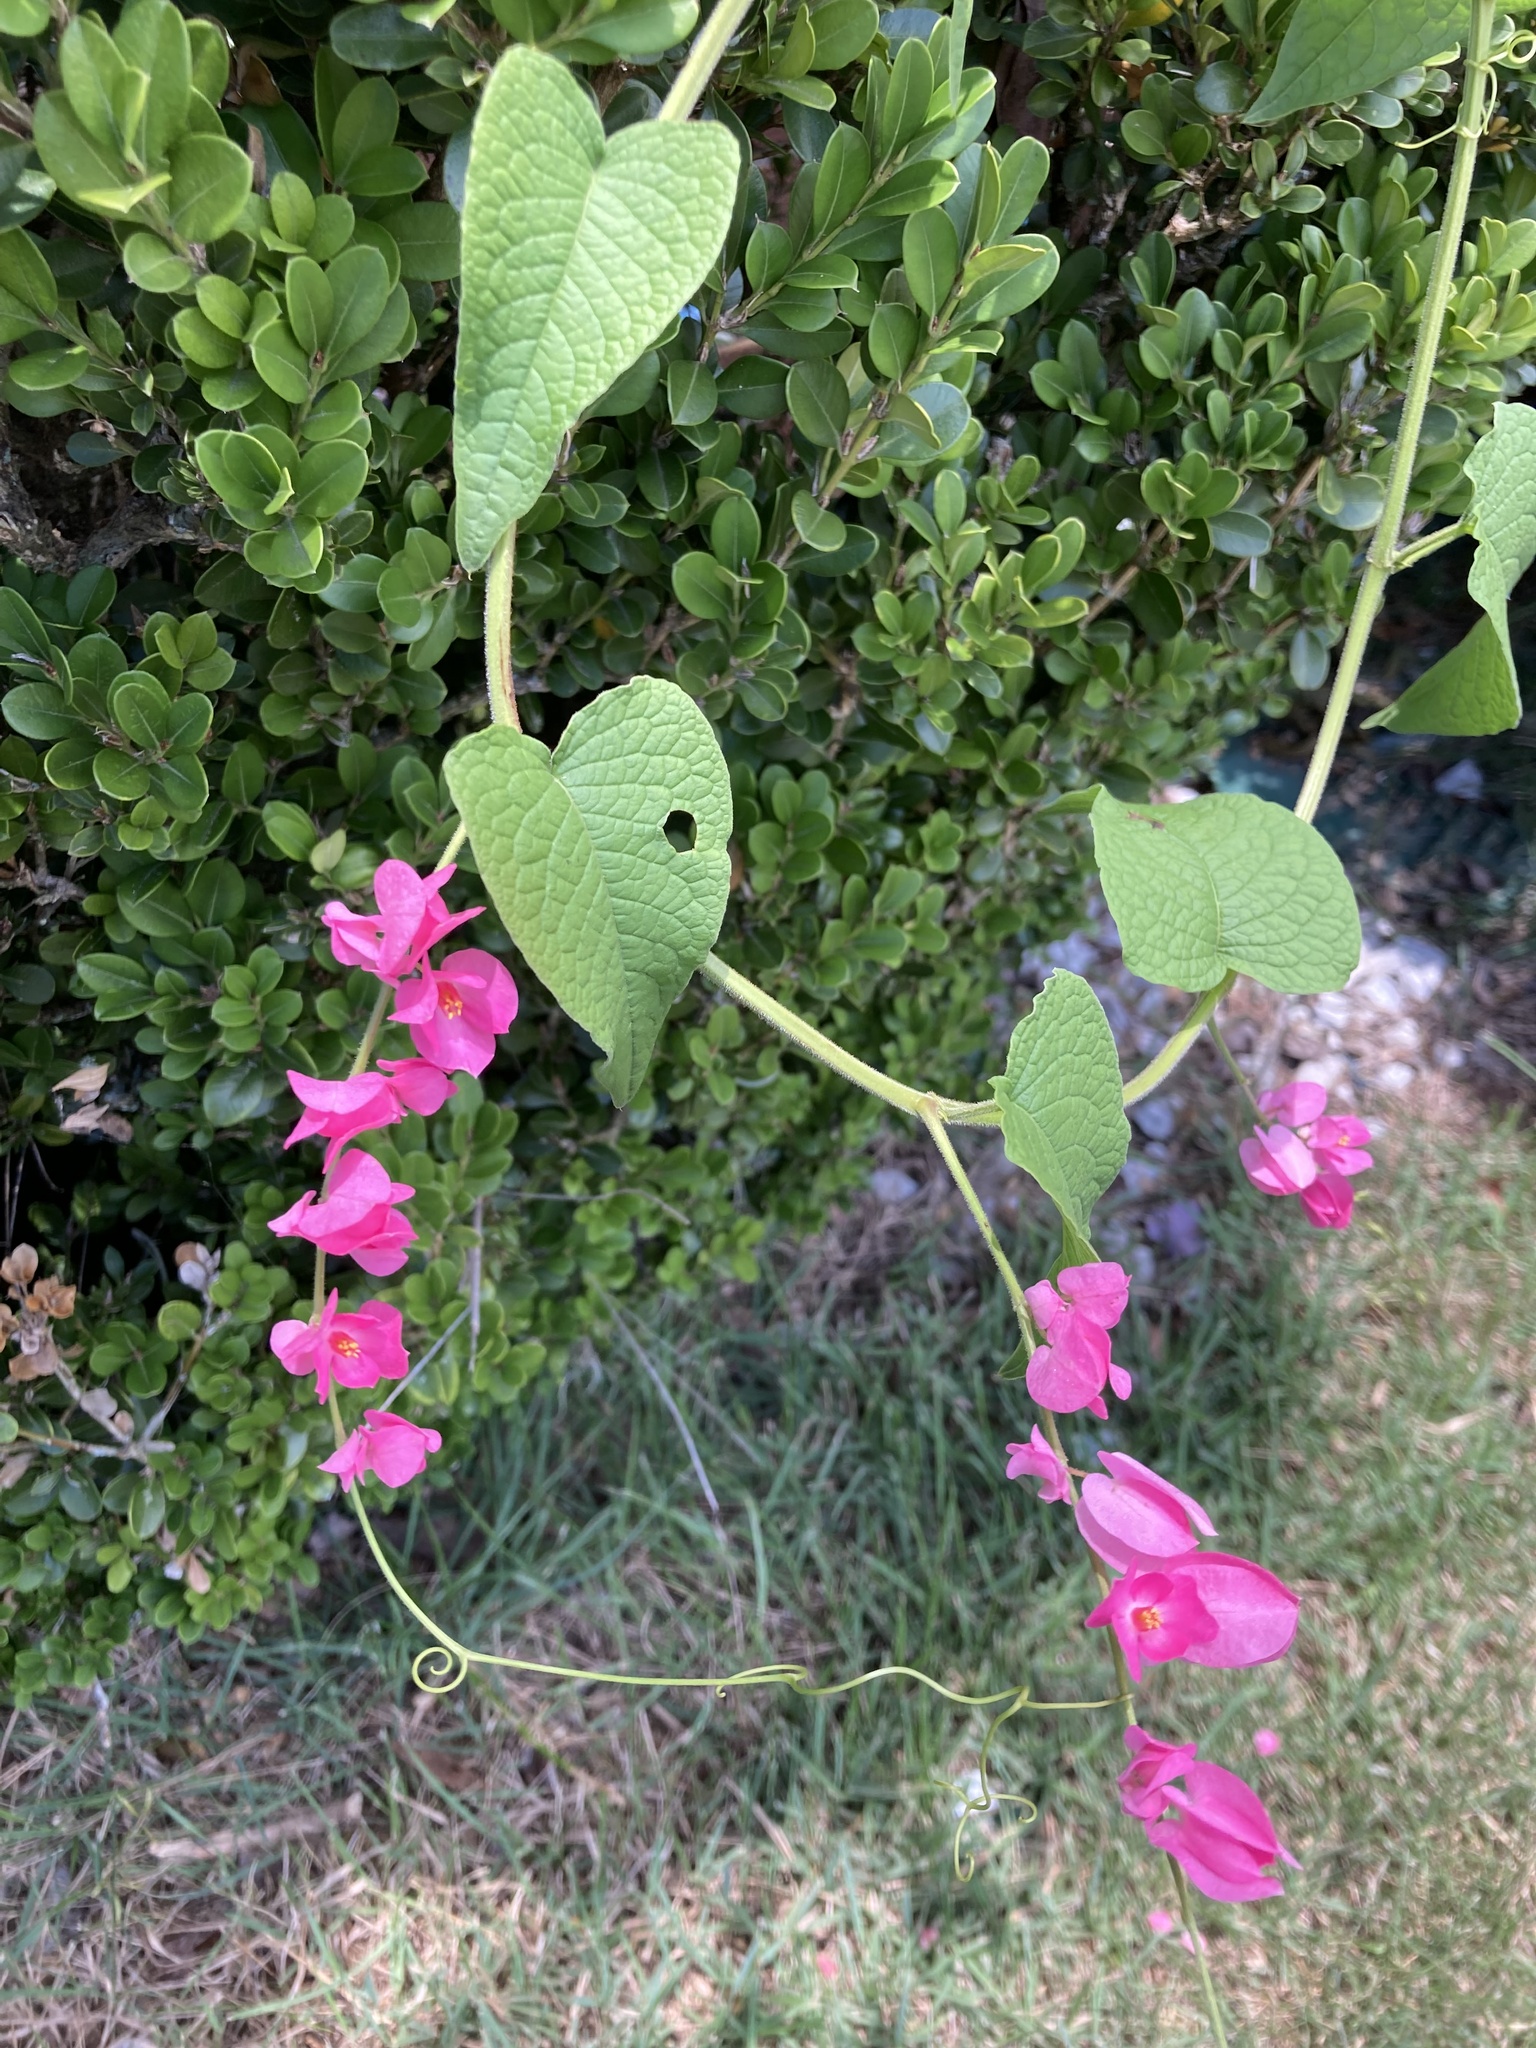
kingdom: Plantae
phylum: Tracheophyta
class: Magnoliopsida
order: Caryophyllales
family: Polygonaceae
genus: Antigonon
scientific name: Antigonon leptopus
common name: Coral vine
